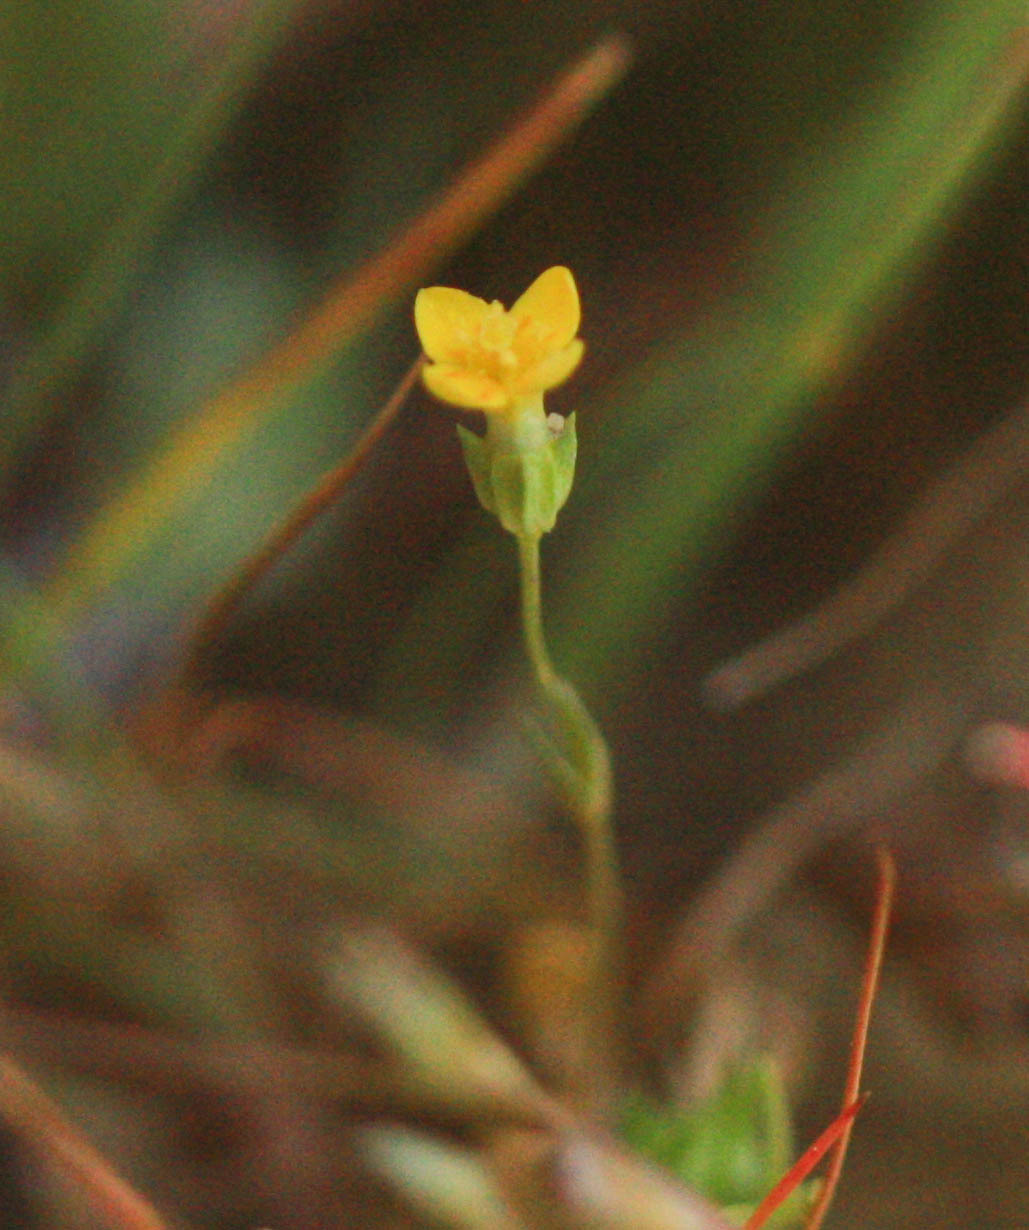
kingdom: Plantae
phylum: Tracheophyta
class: Magnoliopsida
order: Gentianales
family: Gentianaceae
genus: Microcala
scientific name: Microcala quadrangularis
